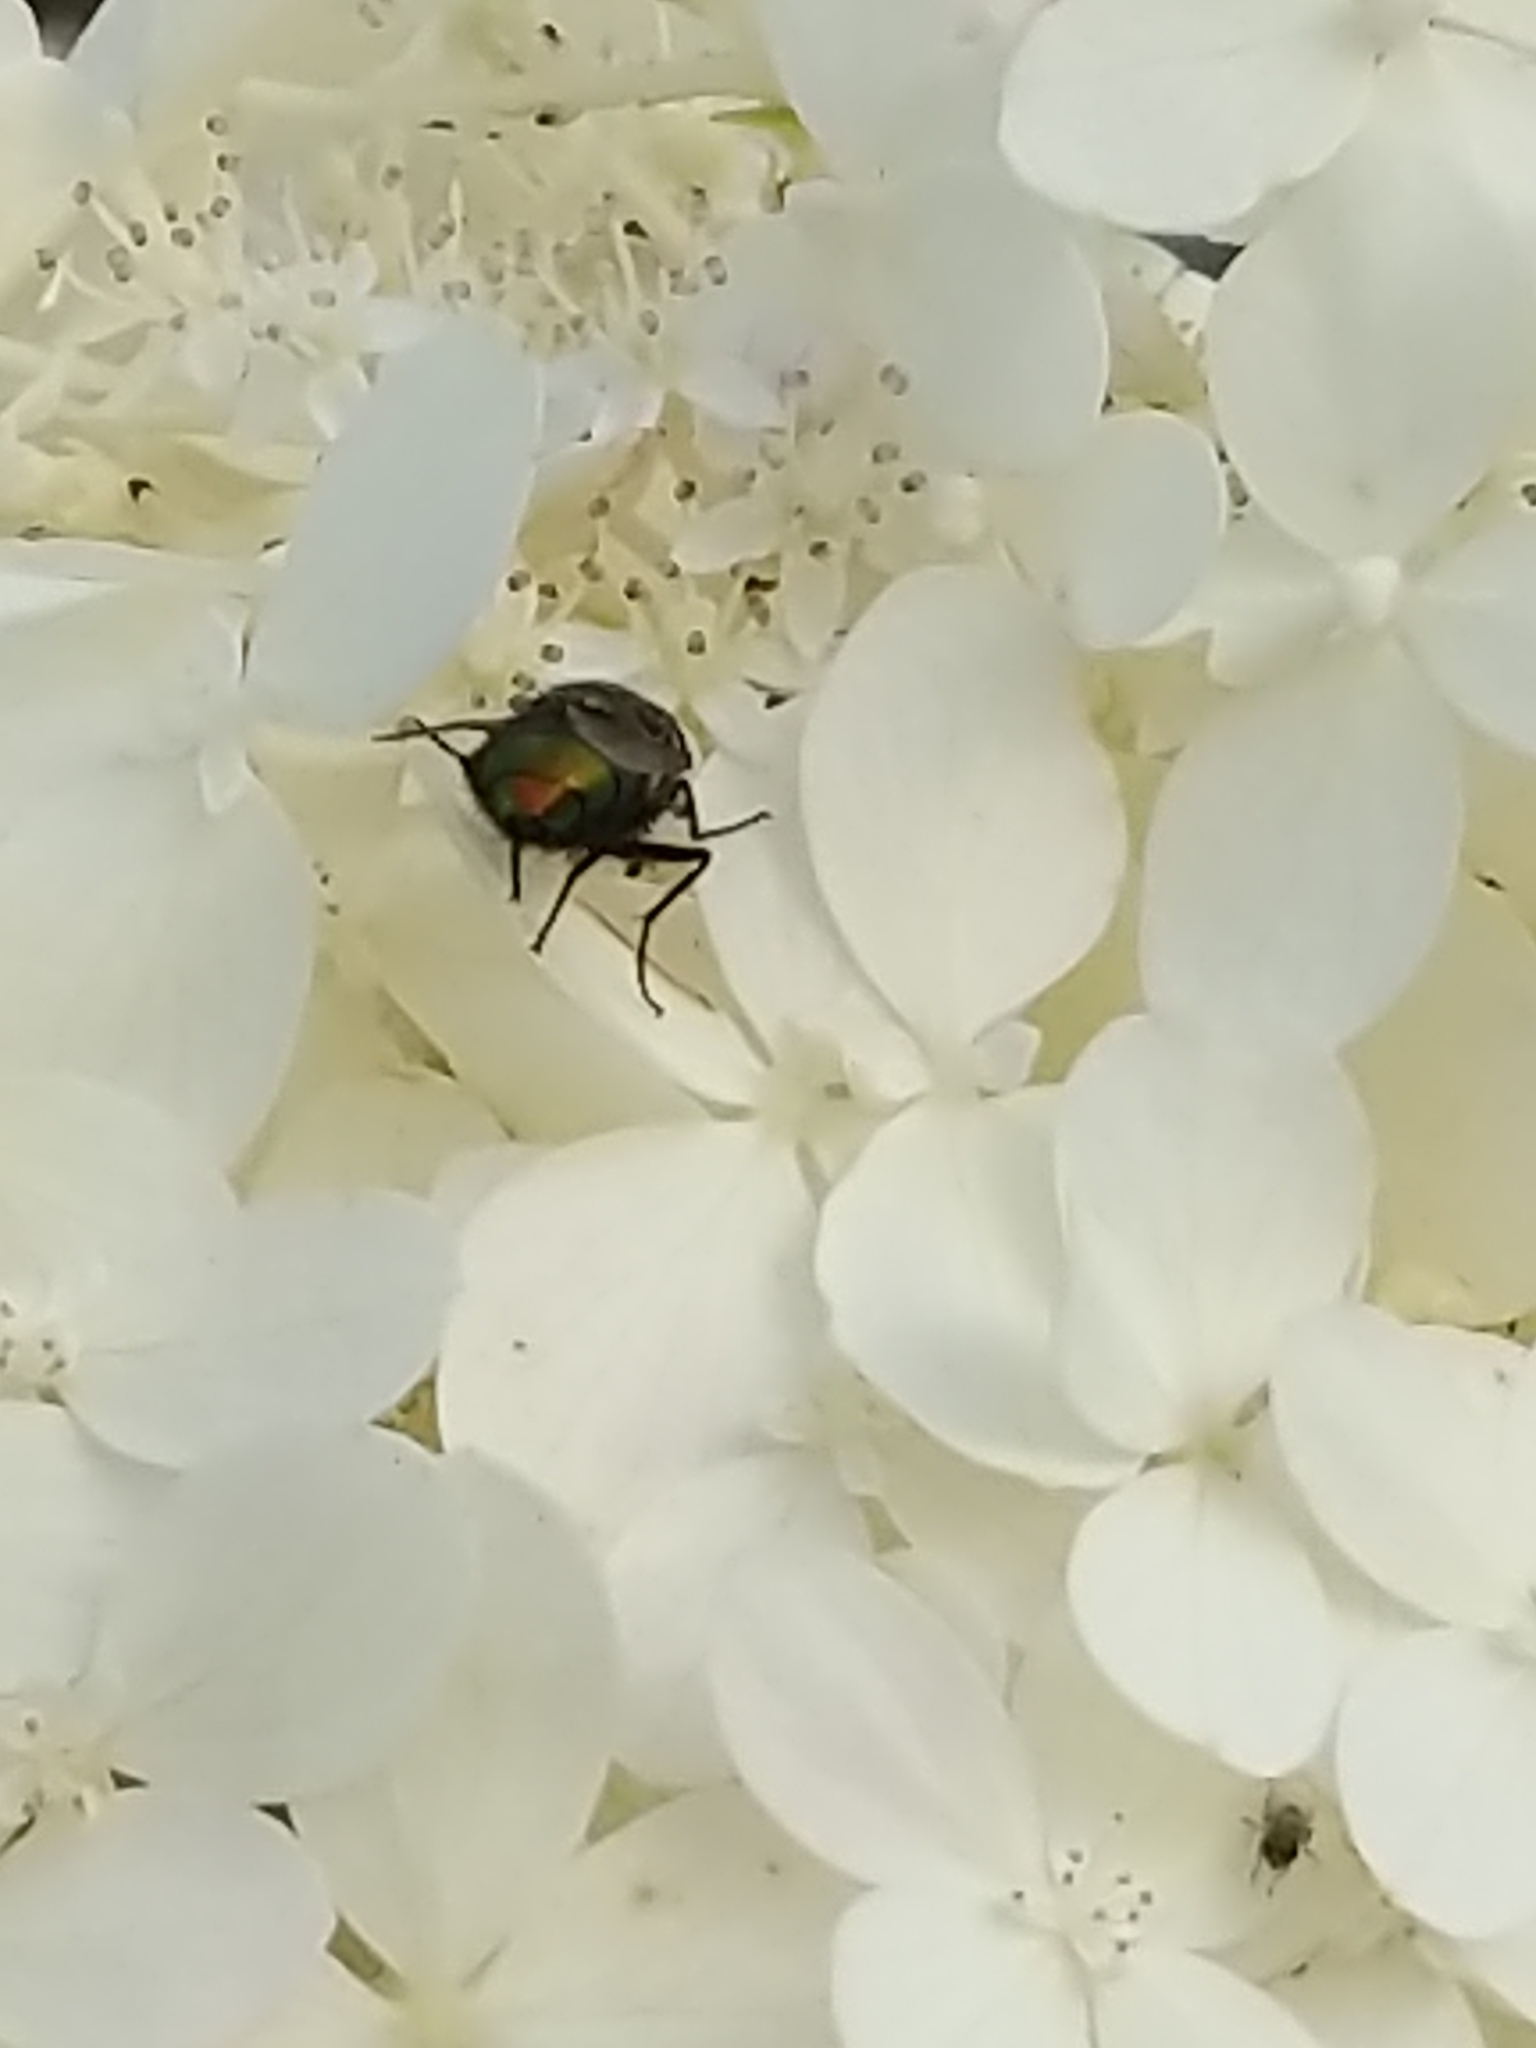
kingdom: Animalia
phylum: Arthropoda
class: Insecta
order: Diptera
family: Calliphoridae
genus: Lucilia
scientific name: Lucilia
